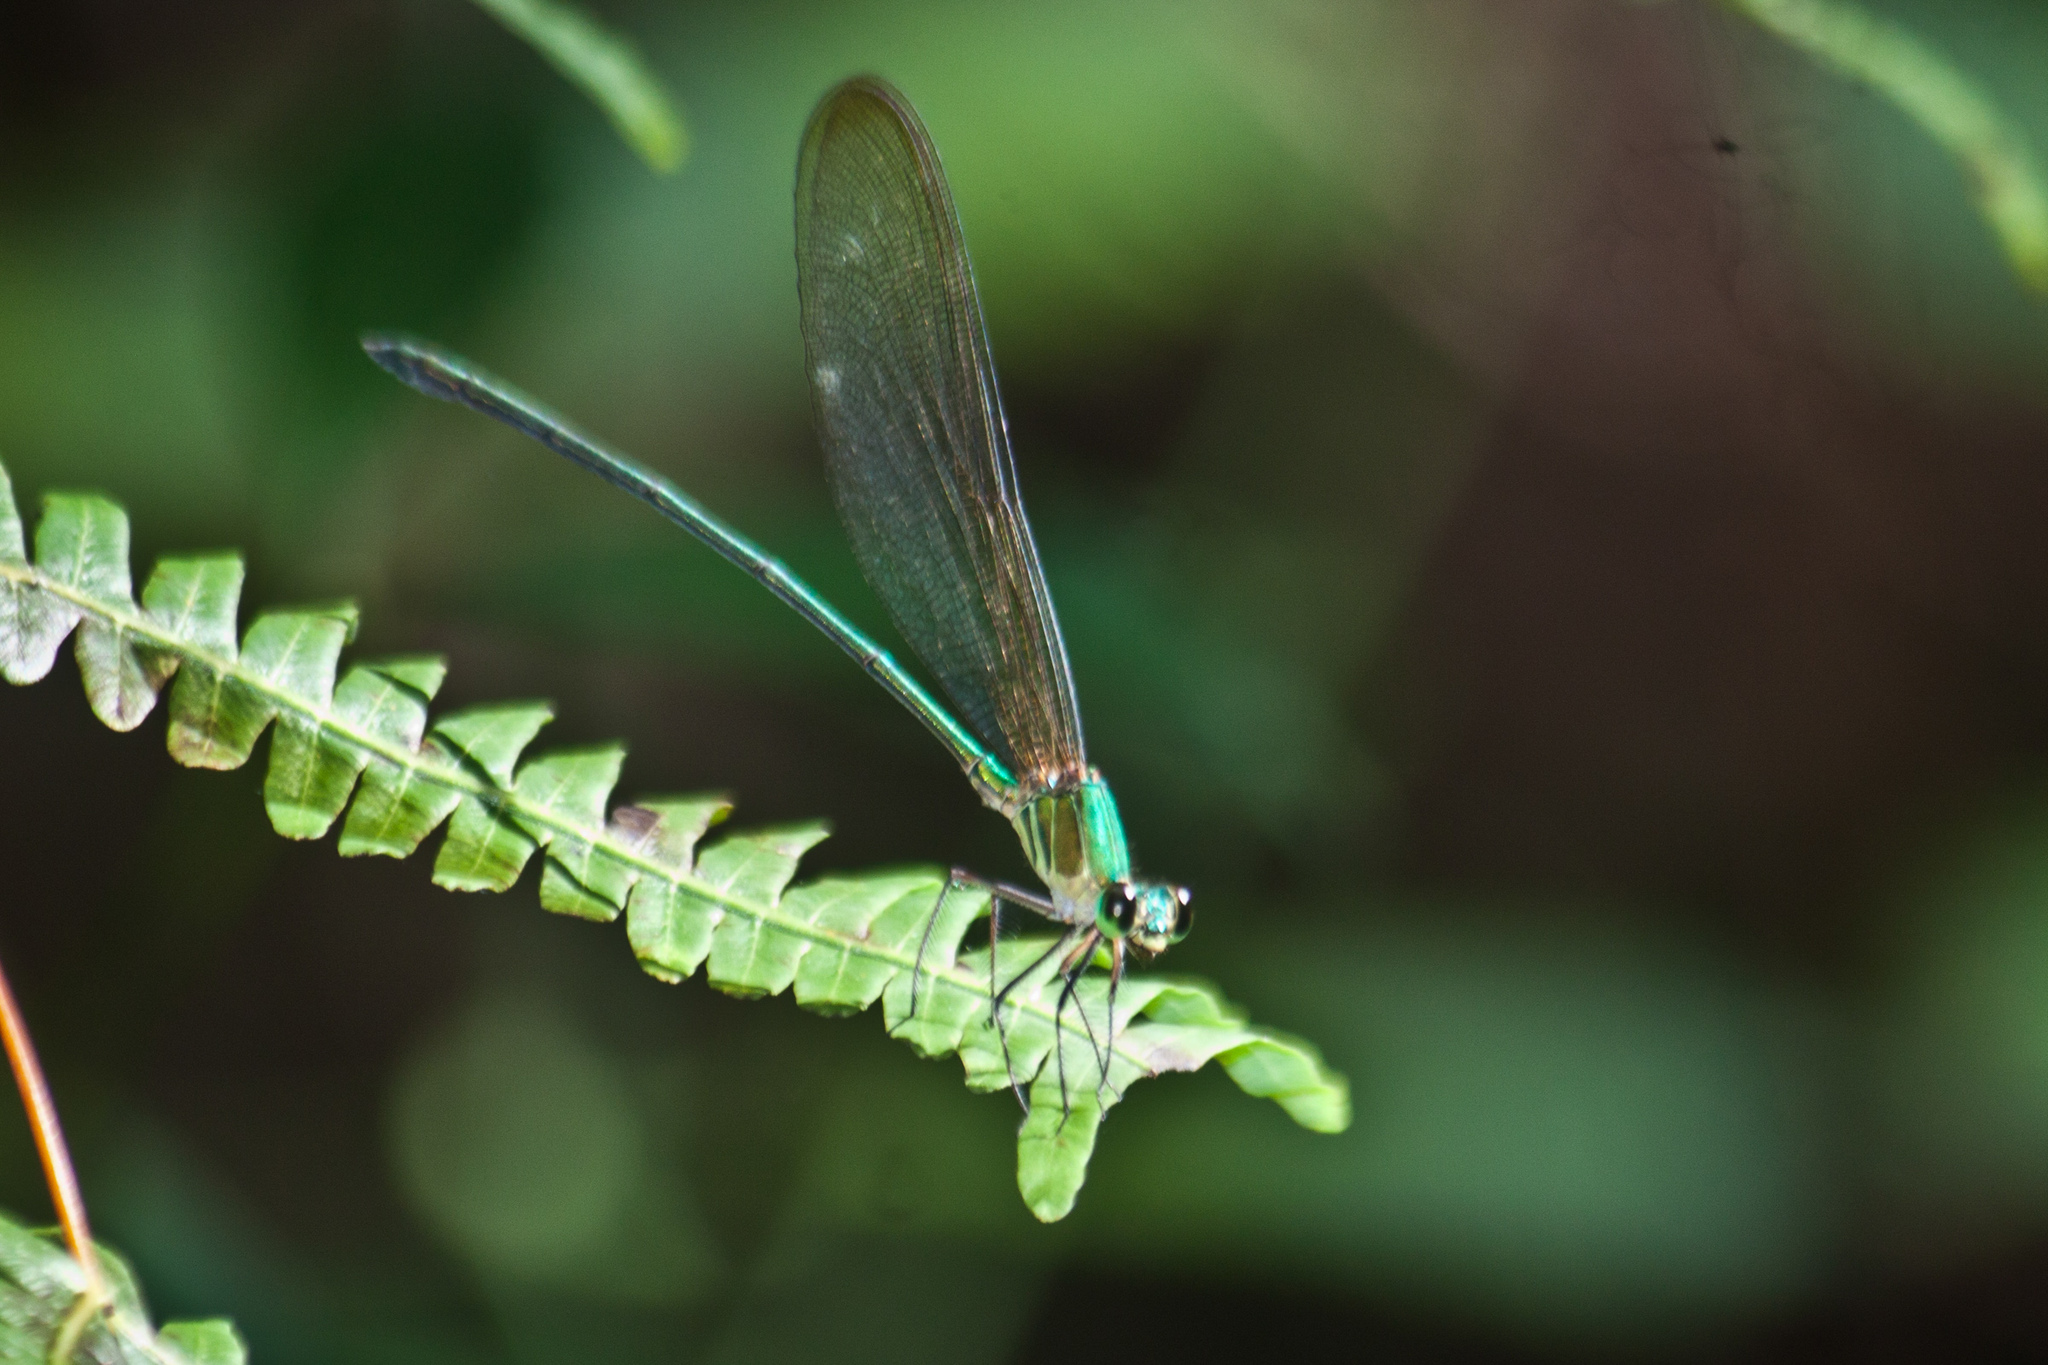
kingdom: Animalia
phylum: Arthropoda
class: Insecta
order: Odonata
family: Calopterygidae
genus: Vestalis
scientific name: Vestalis gracilis
